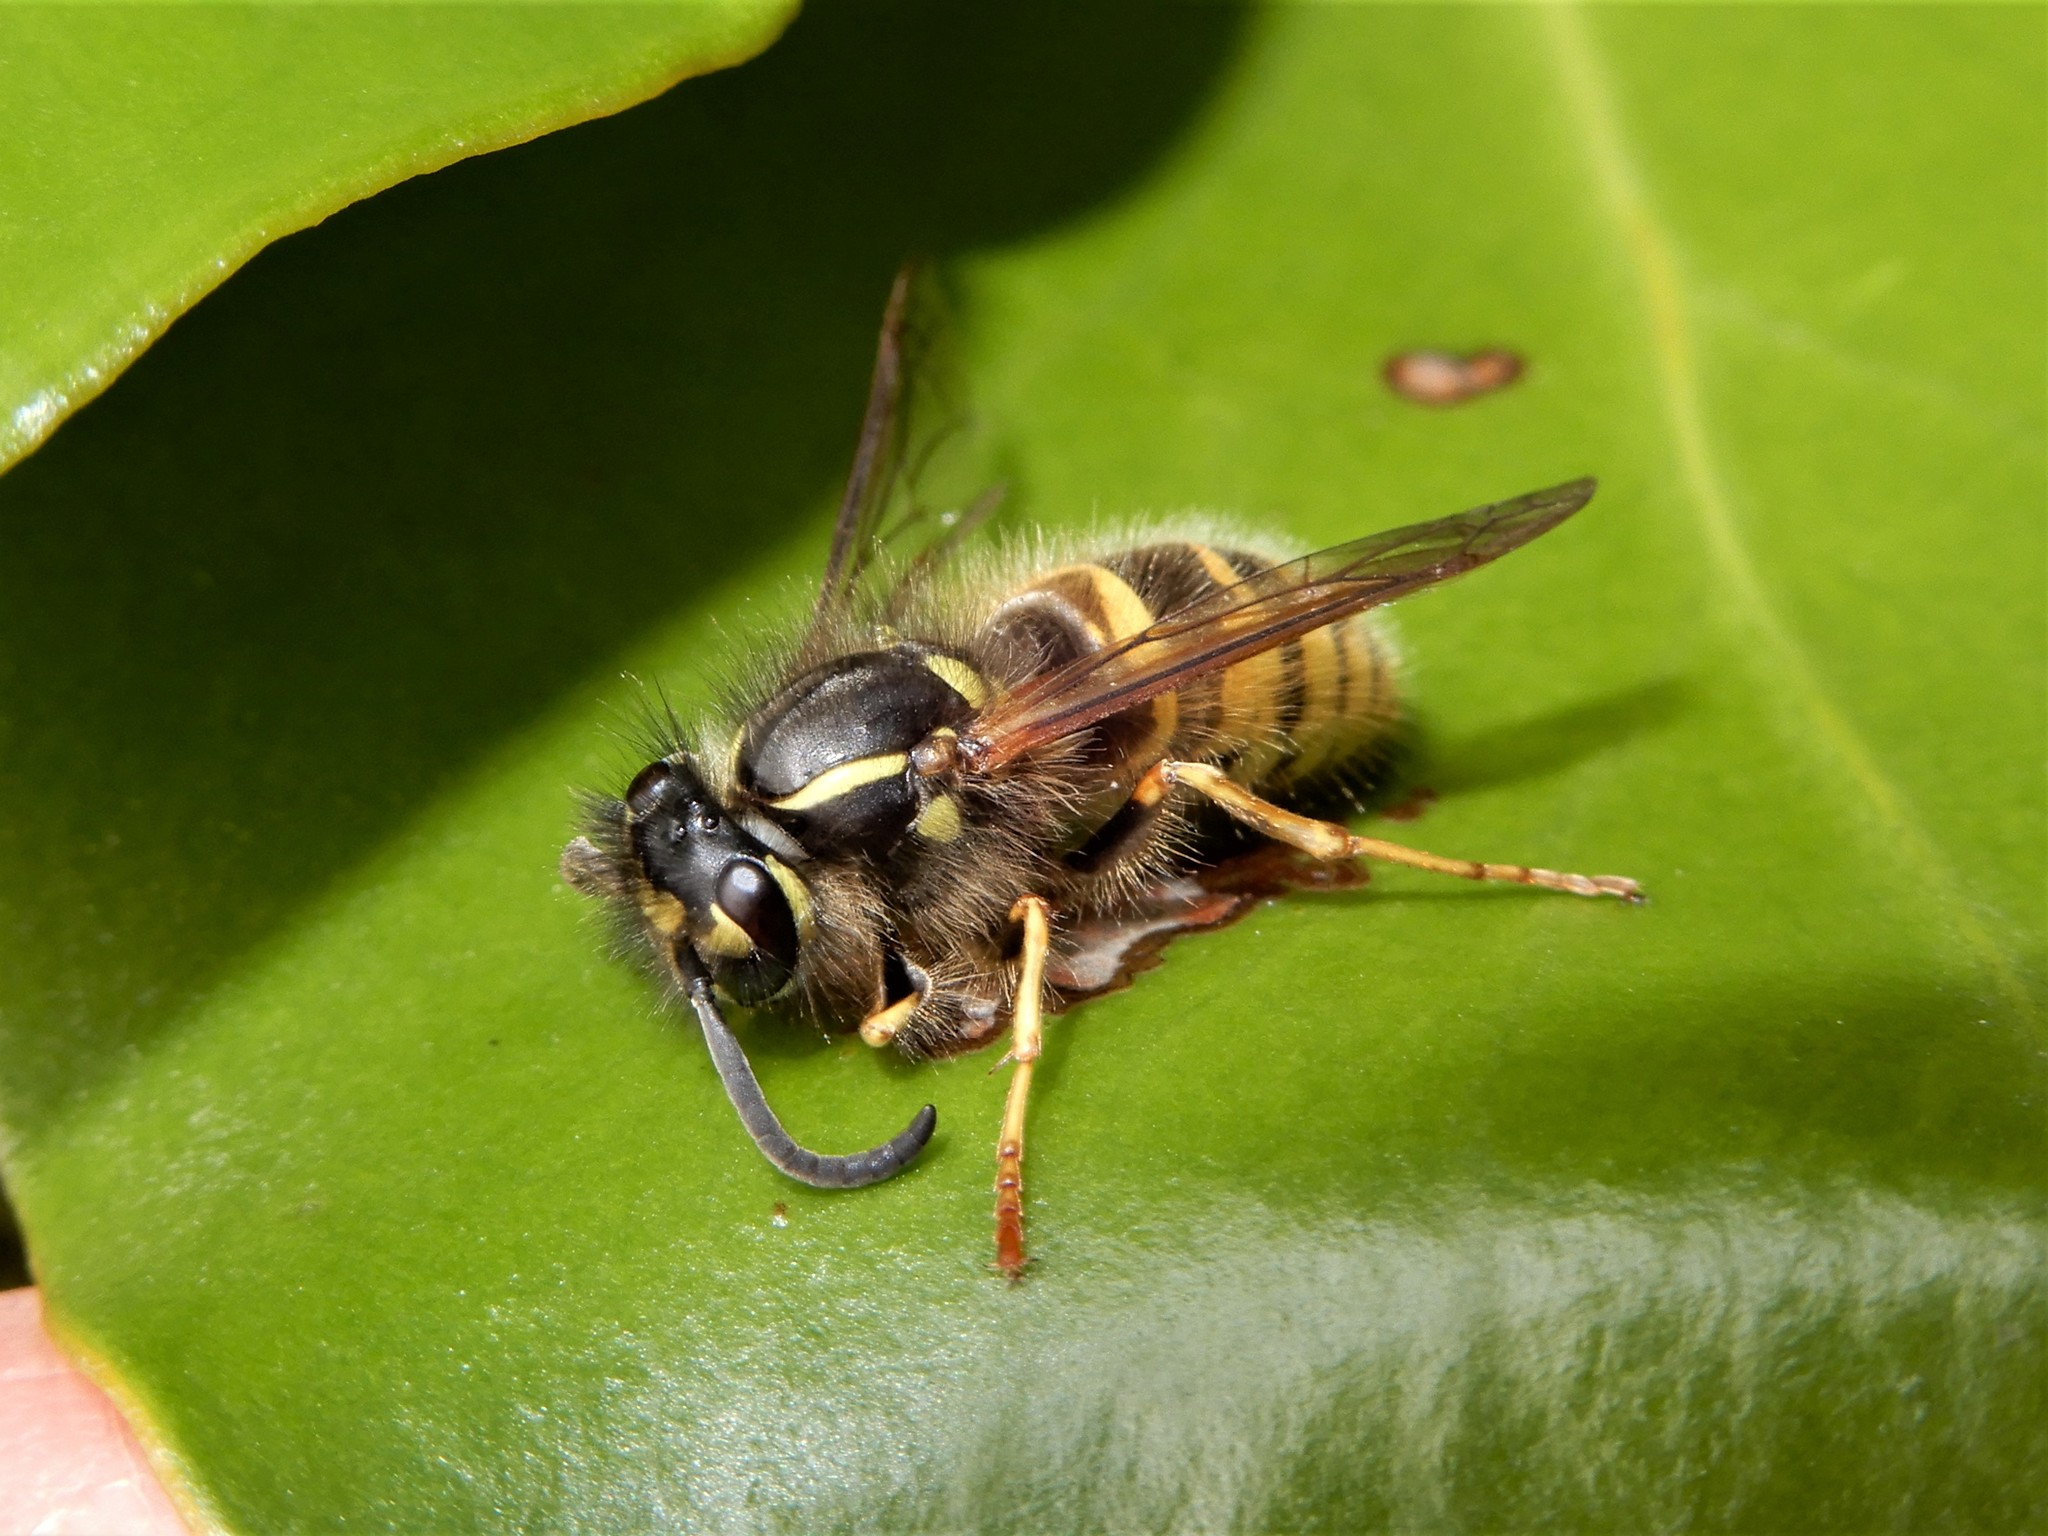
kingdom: Animalia
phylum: Arthropoda
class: Insecta
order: Hymenoptera
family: Vespidae
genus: Vespula
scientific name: Vespula vulgaris
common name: Common wasp
